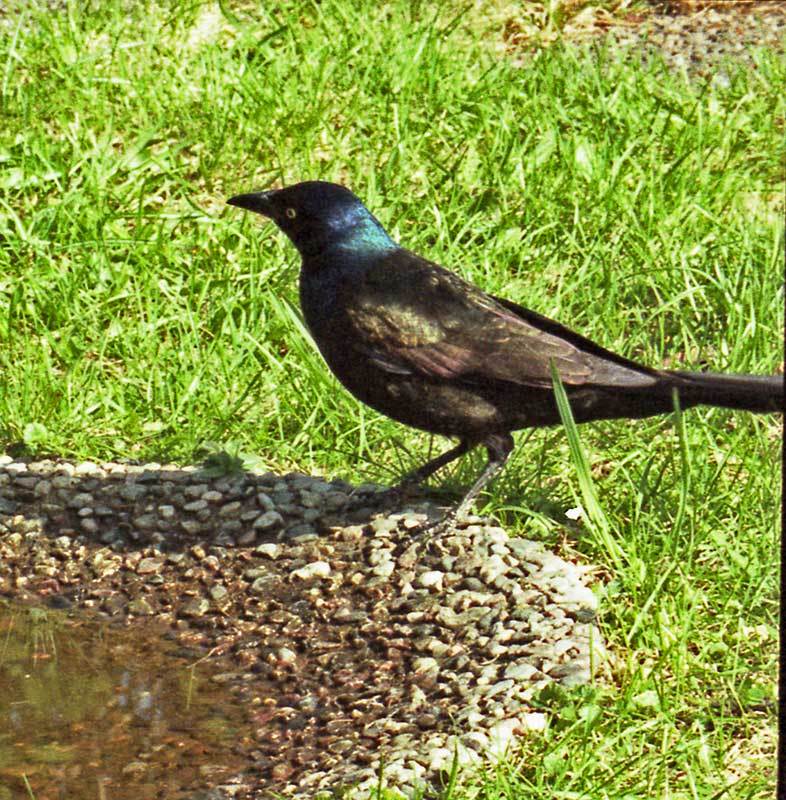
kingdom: Animalia
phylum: Chordata
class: Aves
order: Passeriformes
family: Icteridae
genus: Quiscalus
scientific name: Quiscalus quiscula
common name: Common grackle
